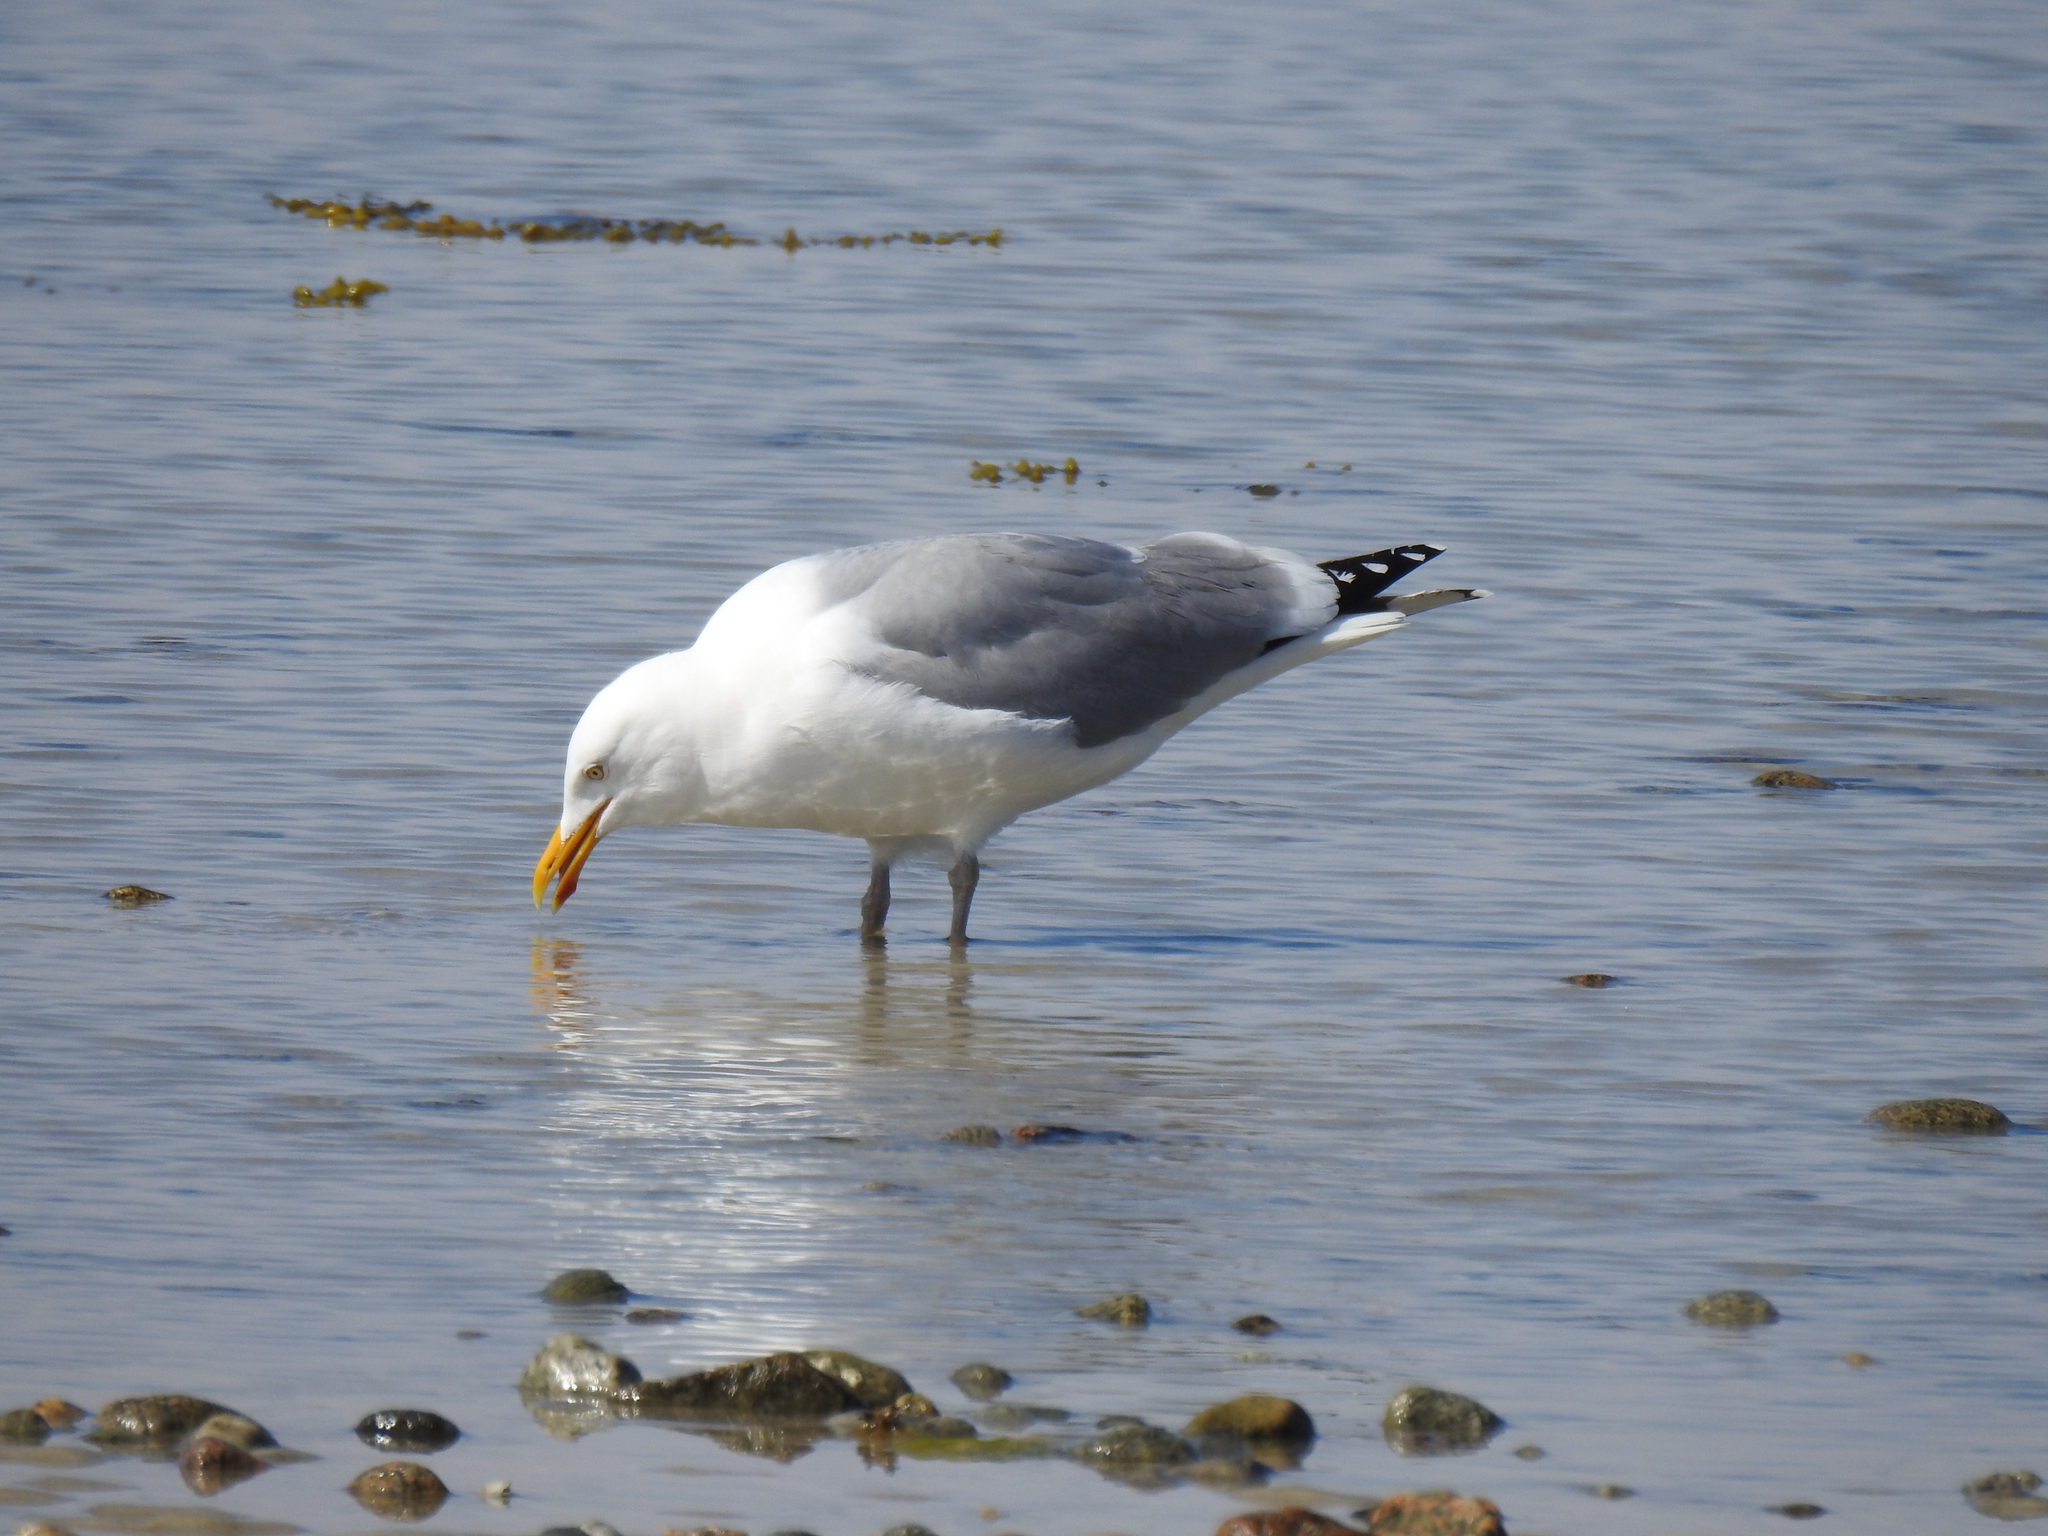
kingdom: Animalia
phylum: Chordata
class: Aves
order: Charadriiformes
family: Laridae
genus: Larus
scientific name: Larus argentatus
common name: Herring gull
